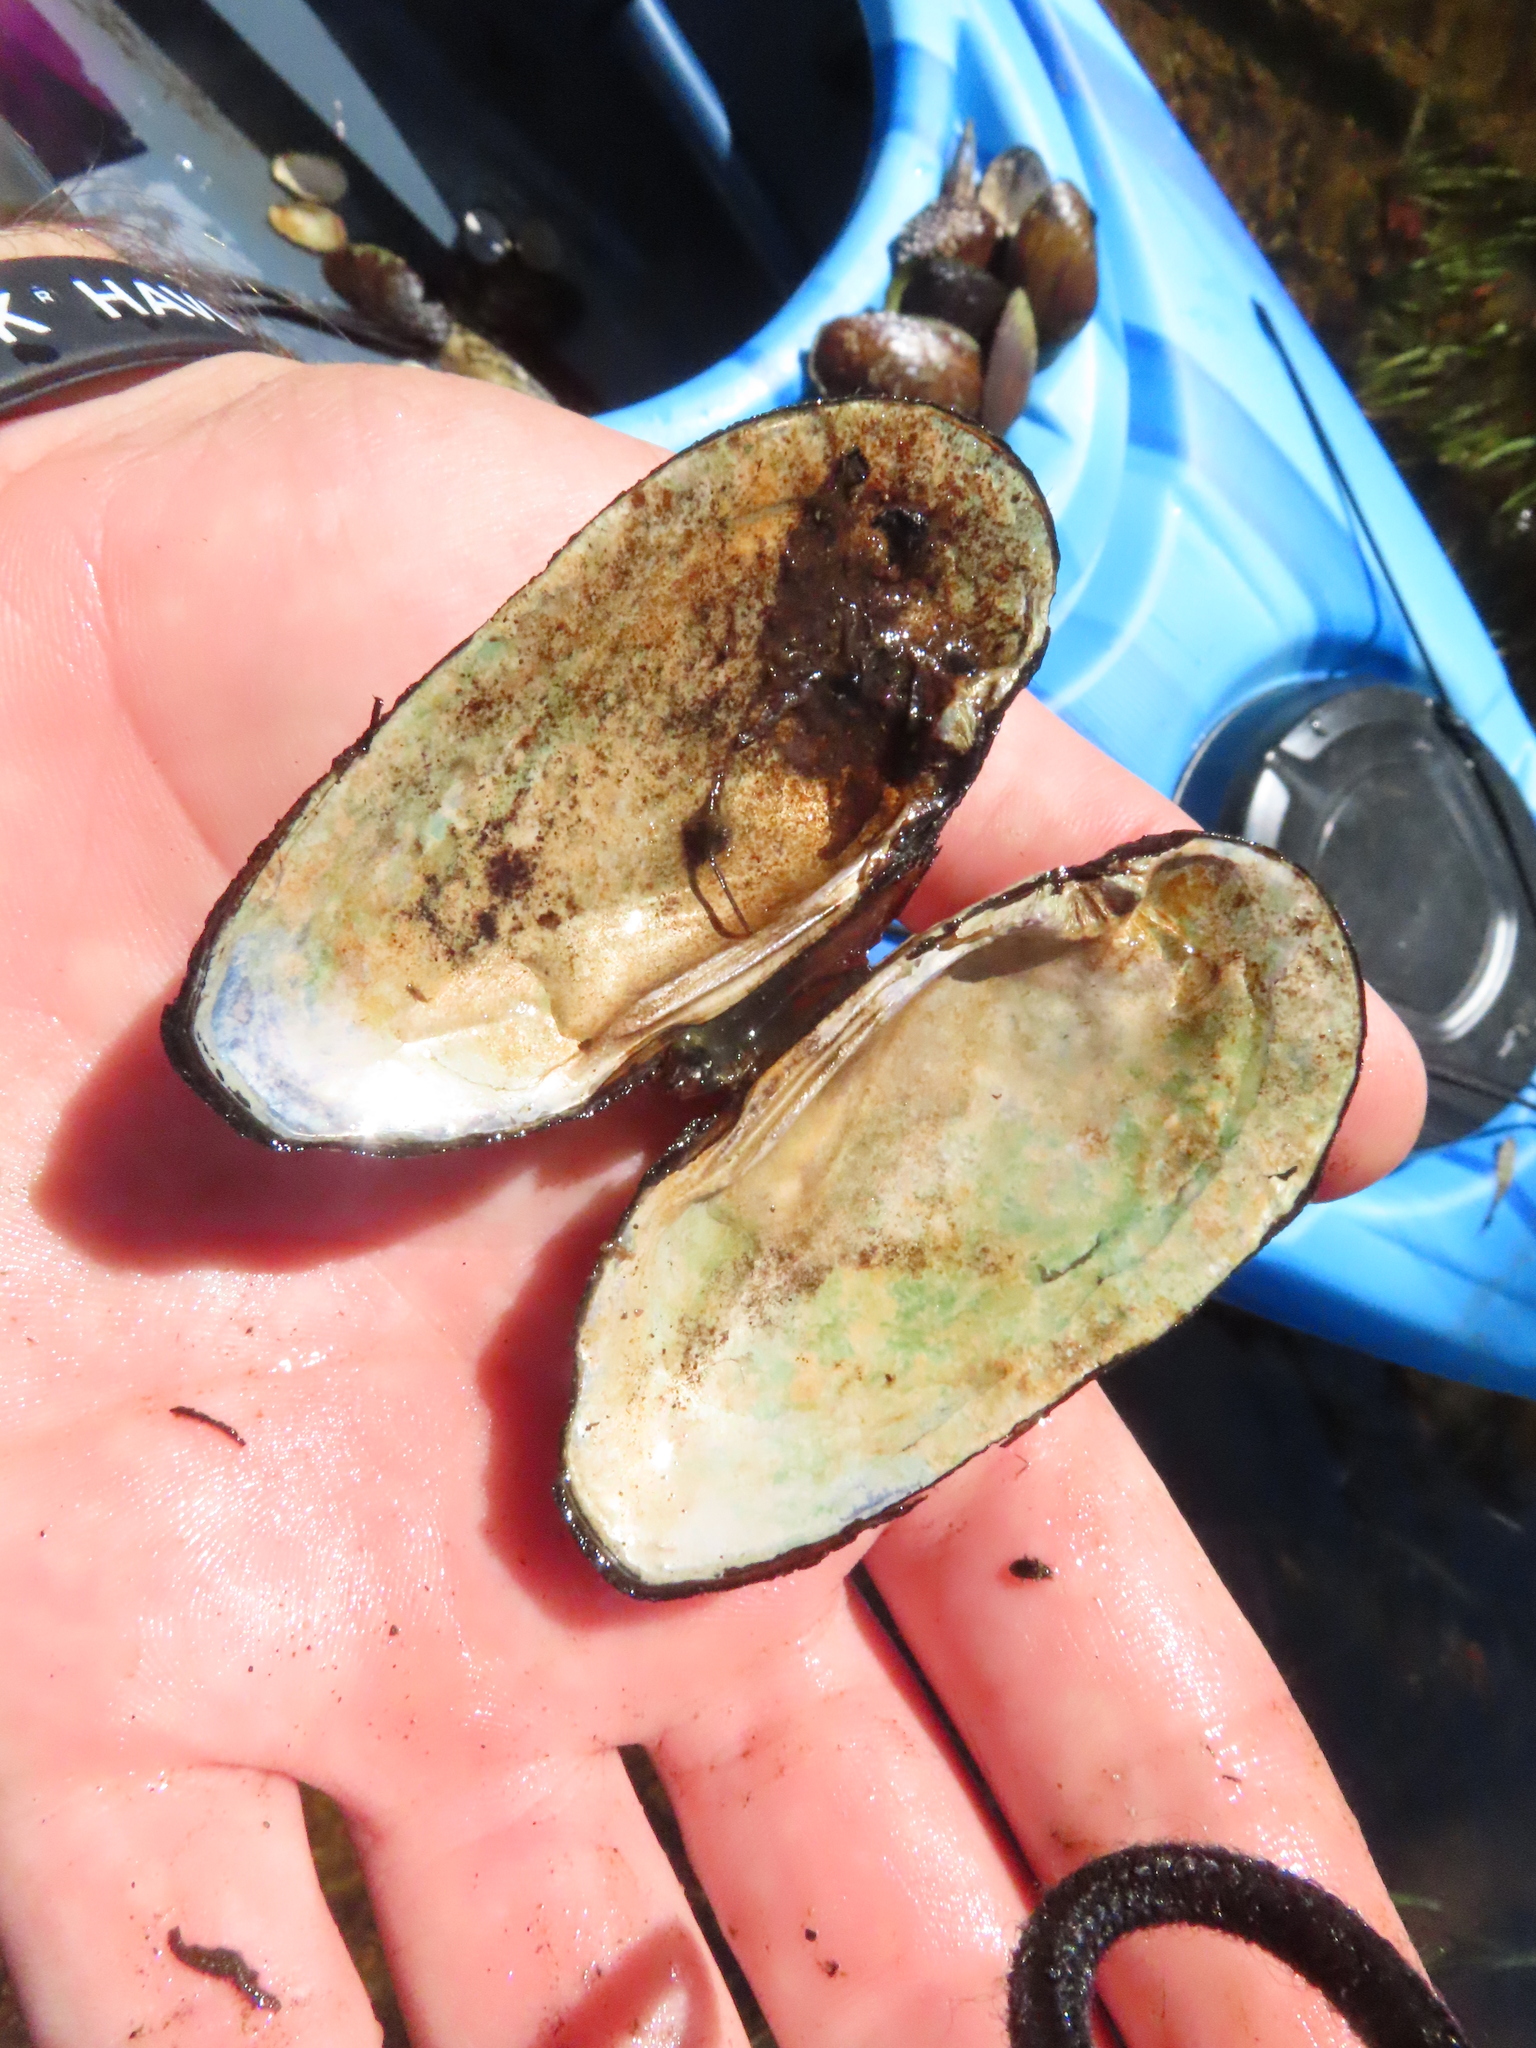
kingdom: Animalia
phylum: Mollusca
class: Bivalvia
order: Unionida
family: Unionidae
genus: Eurynia
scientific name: Eurynia dilatata
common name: Spike
